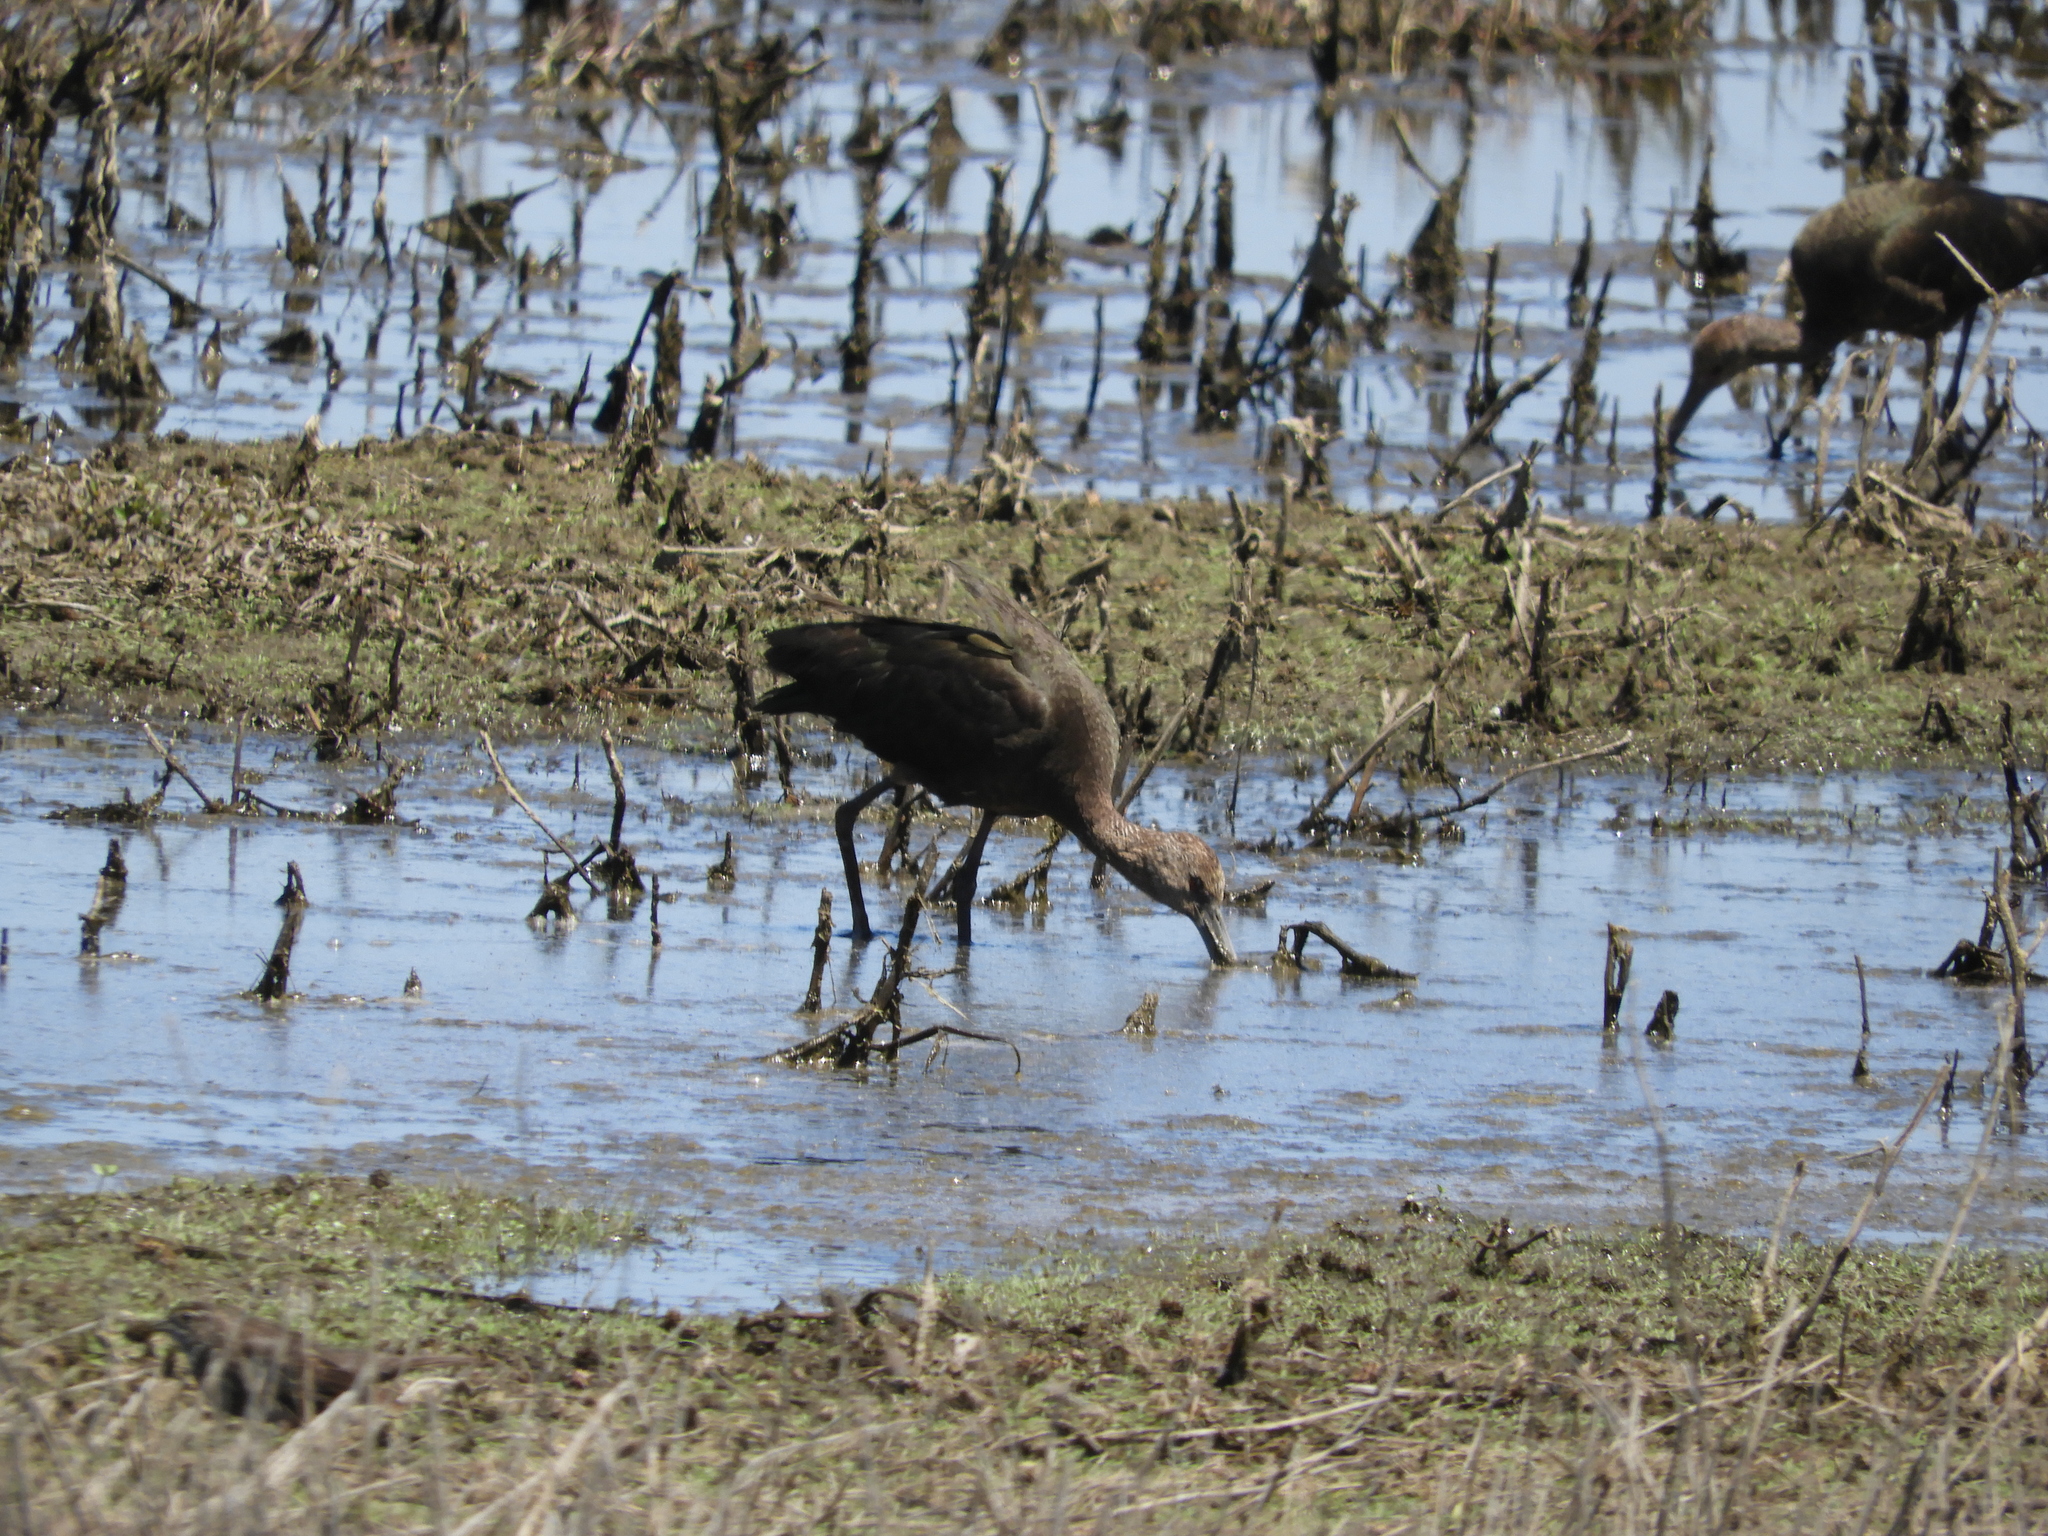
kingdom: Animalia
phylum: Chordata
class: Aves
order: Pelecaniformes
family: Threskiornithidae
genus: Plegadis
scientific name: Plegadis chihi
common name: White-faced ibis
